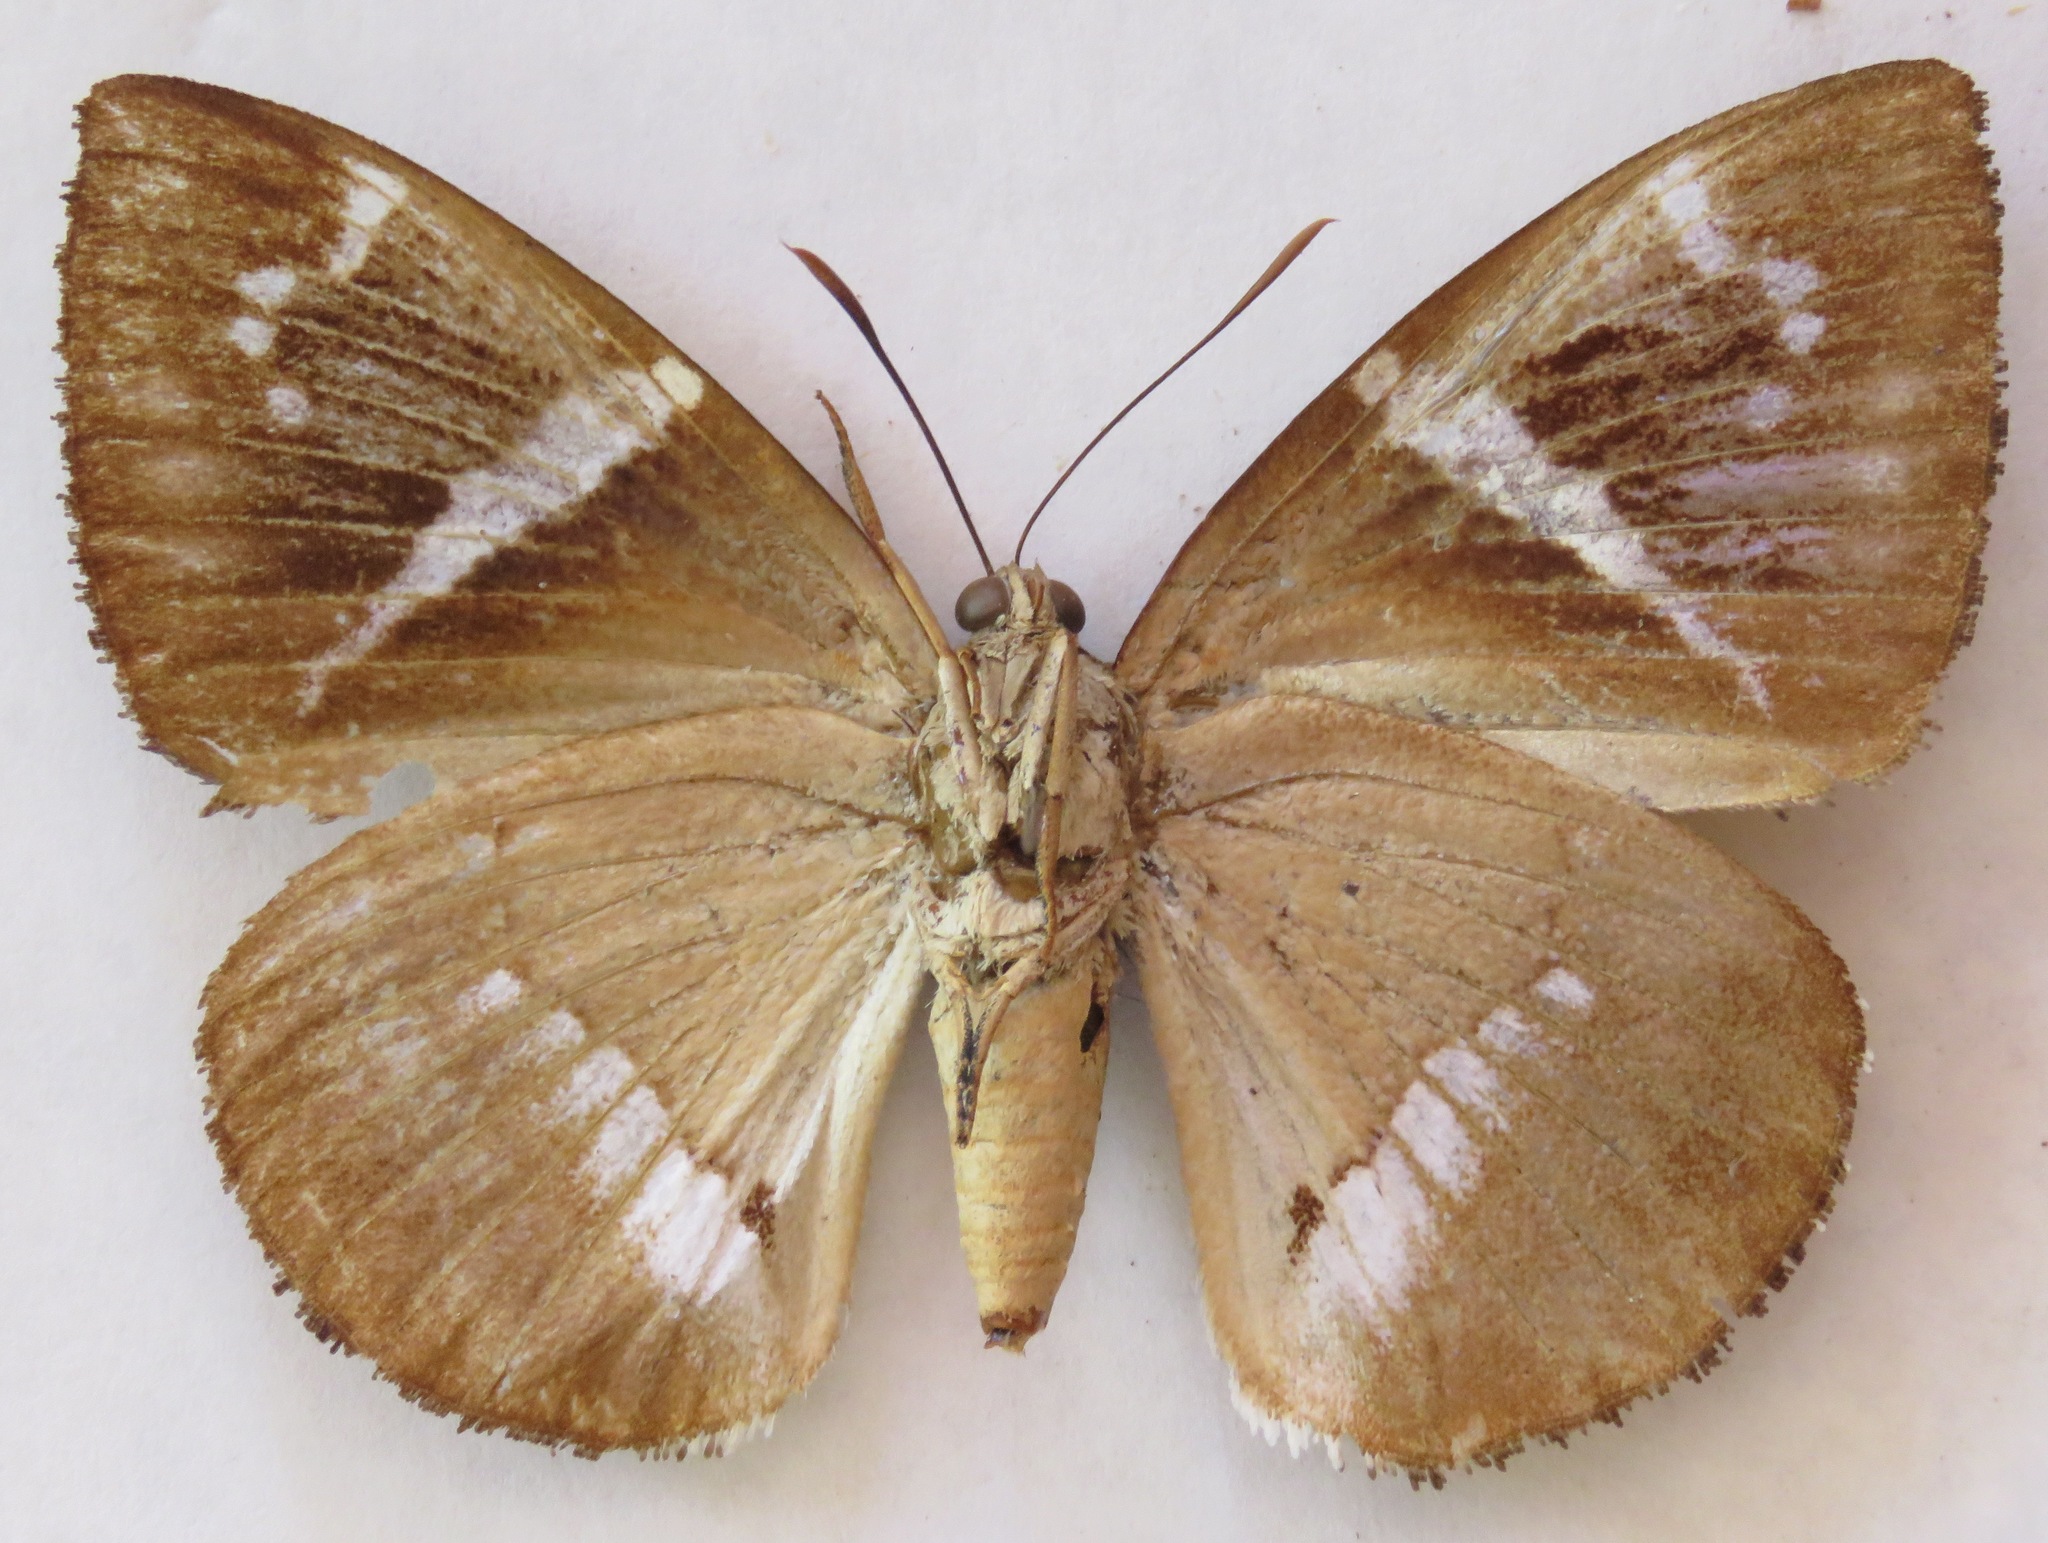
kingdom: Animalia
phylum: Arthropoda
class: Insecta
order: Lepidoptera
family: Castniidae
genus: Castniomera
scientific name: Castniomera atymnius
